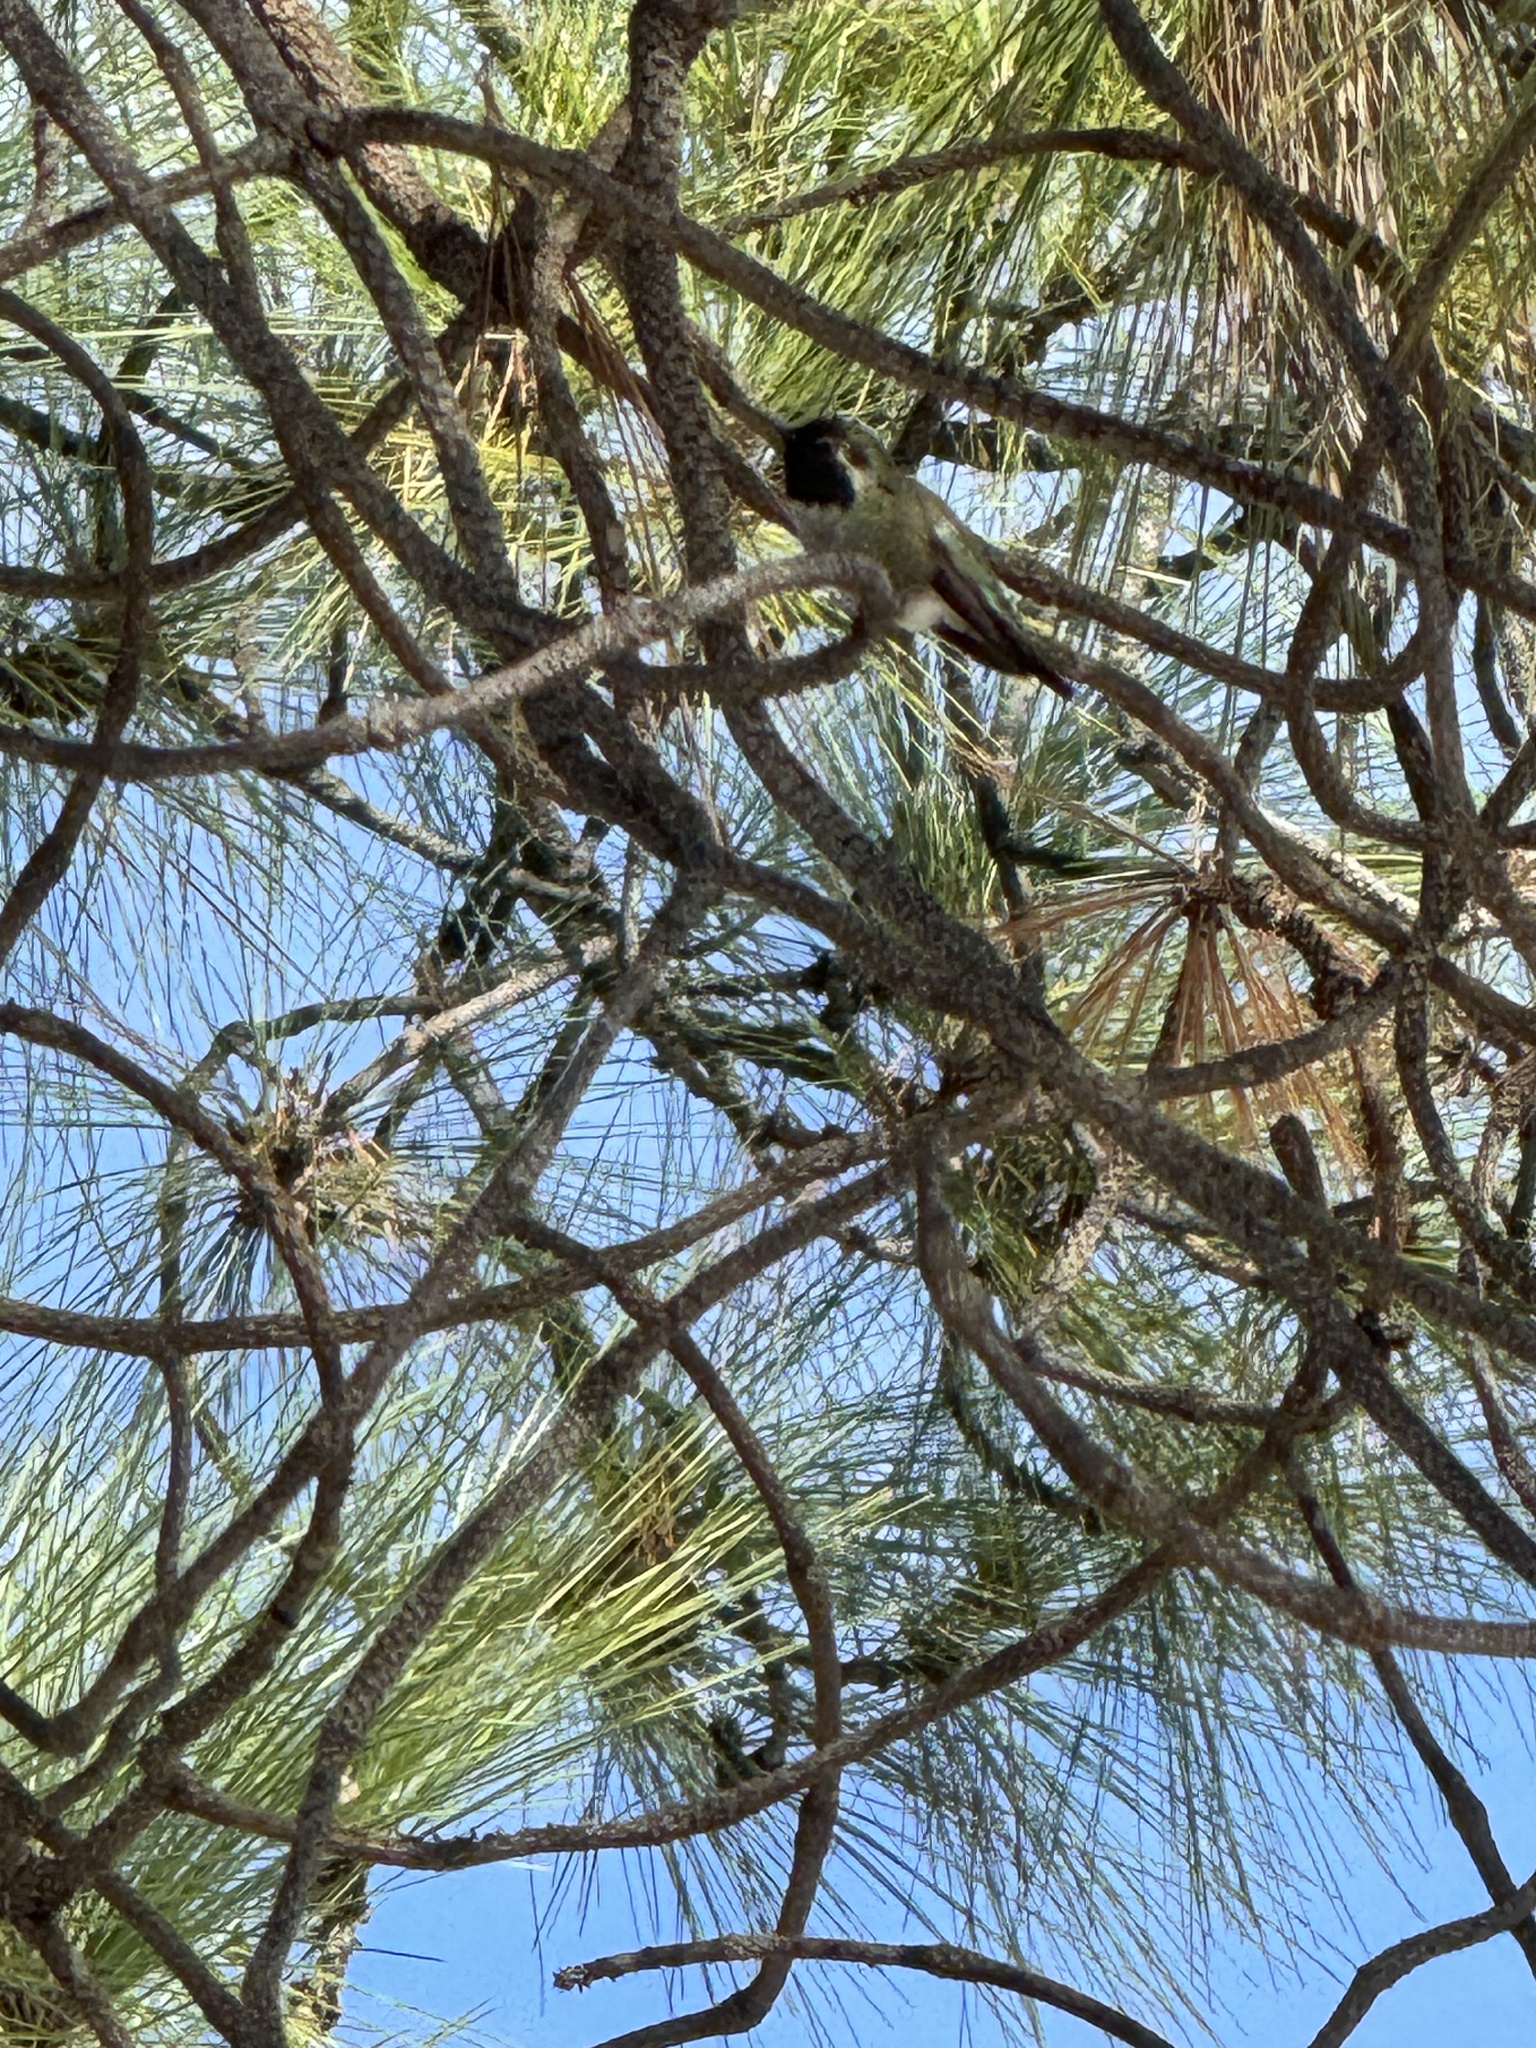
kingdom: Animalia
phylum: Chordata
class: Aves
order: Apodiformes
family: Trochilidae
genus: Calypte
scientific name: Calypte anna
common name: Anna's hummingbird
